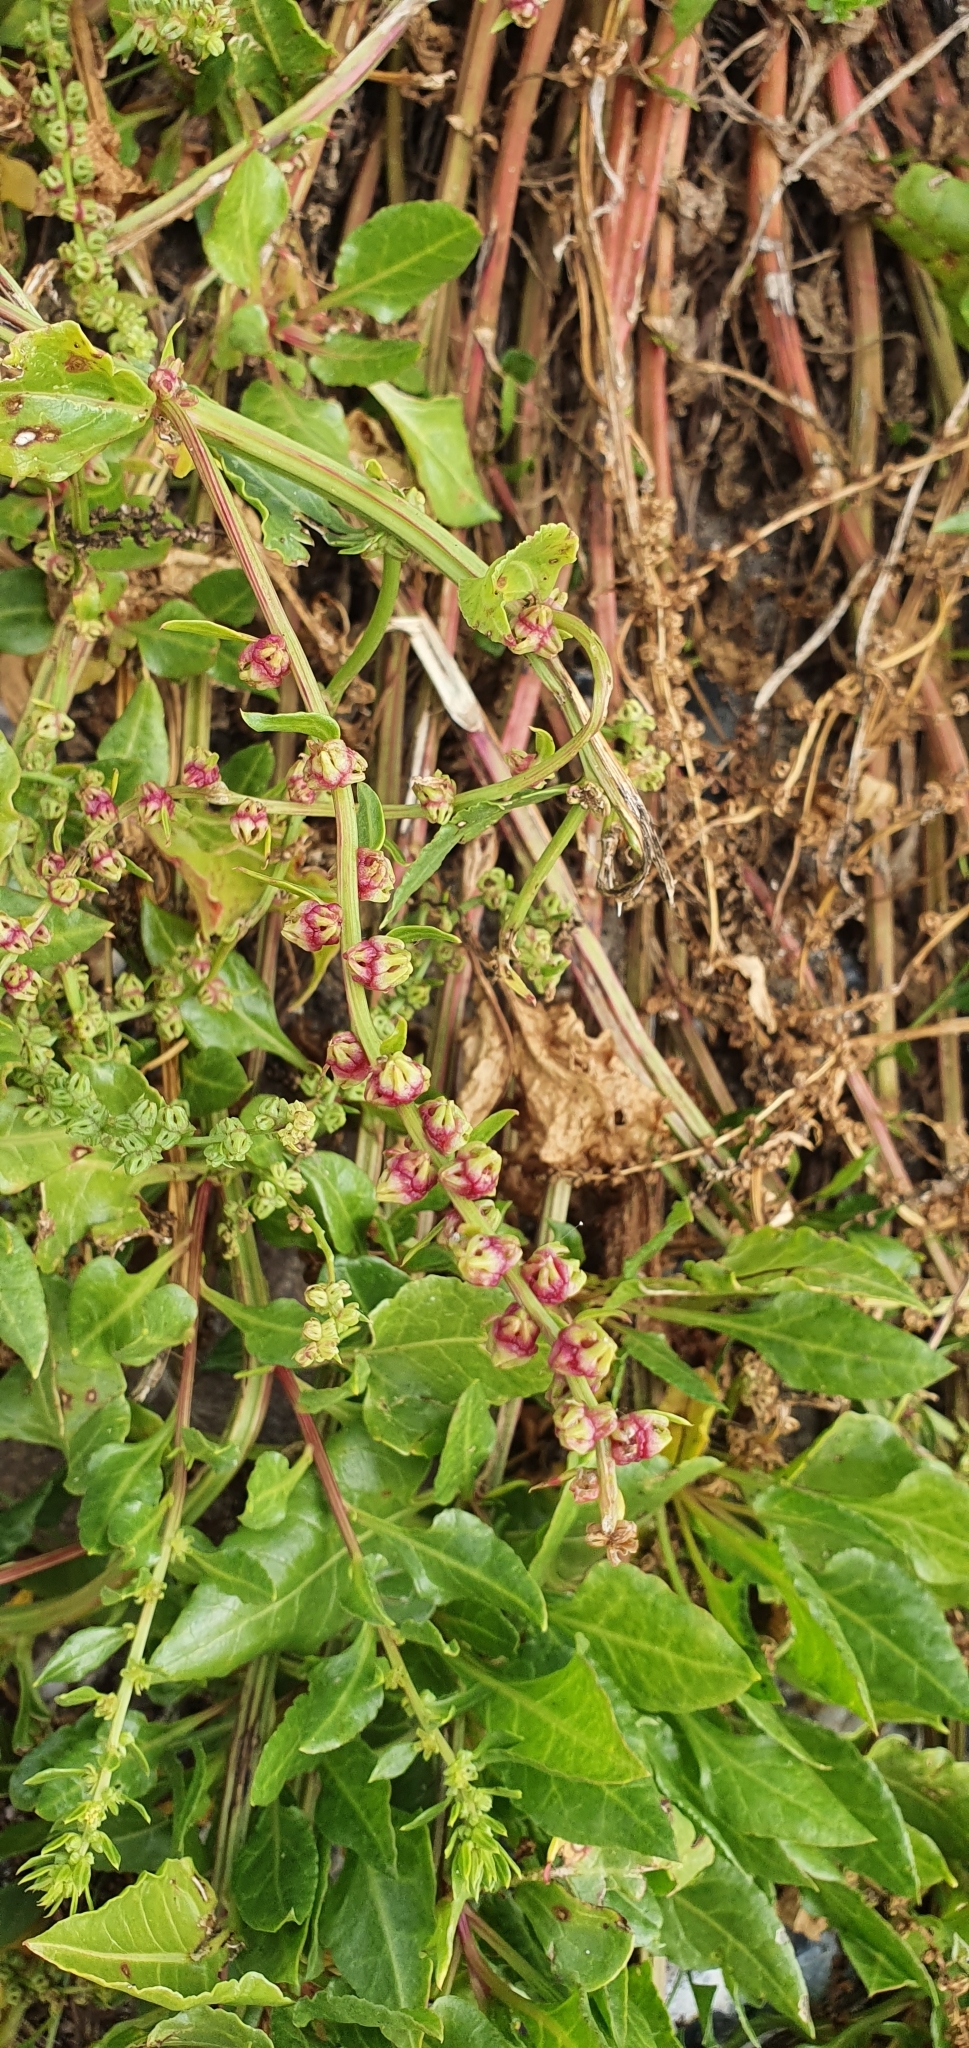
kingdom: Plantae
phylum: Tracheophyta
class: Magnoliopsida
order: Caryophyllales
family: Amaranthaceae
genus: Beta
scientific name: Beta vulgaris
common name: Beet
